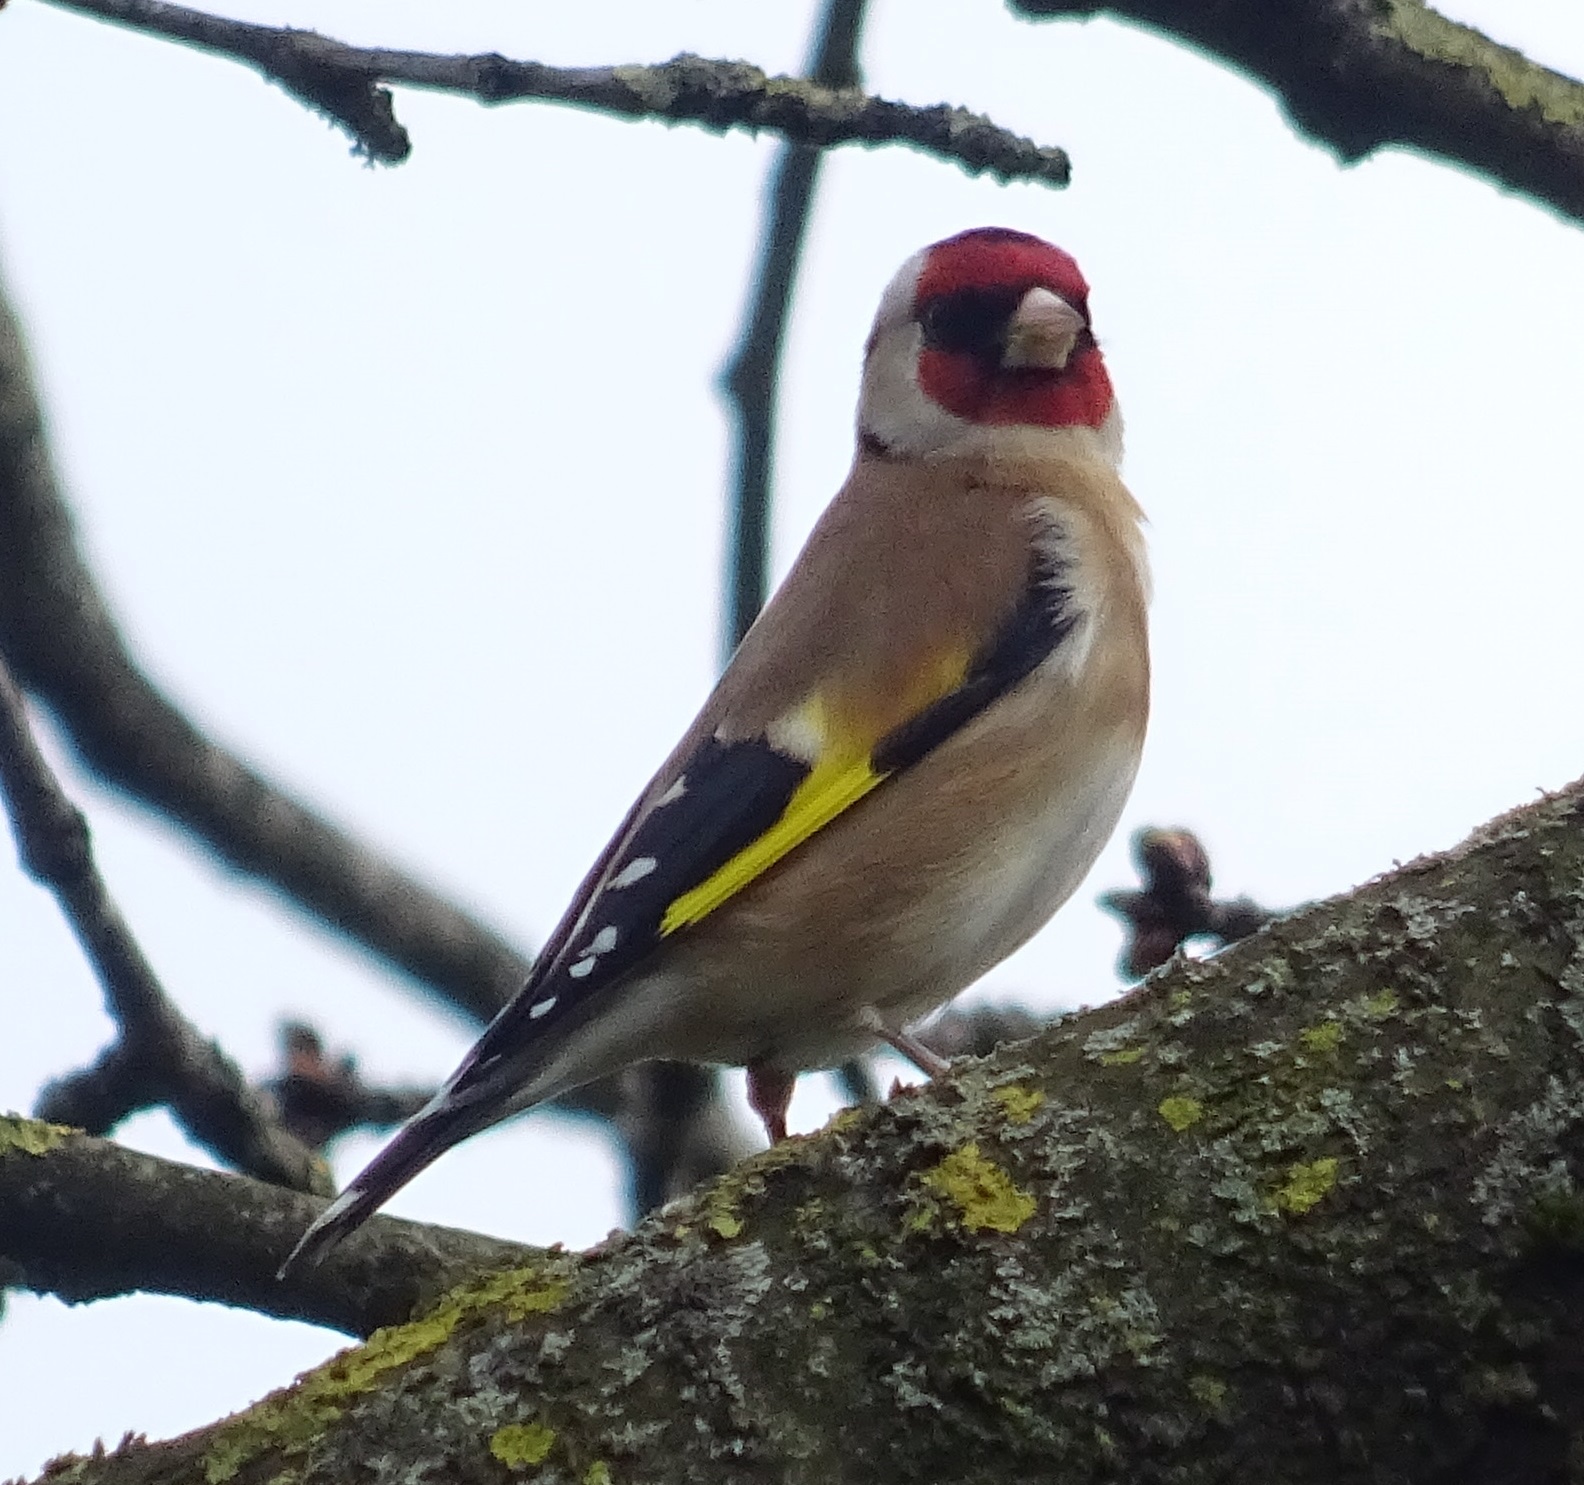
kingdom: Animalia
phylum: Chordata
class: Aves
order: Passeriformes
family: Fringillidae
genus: Carduelis
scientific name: Carduelis carduelis
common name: European goldfinch
